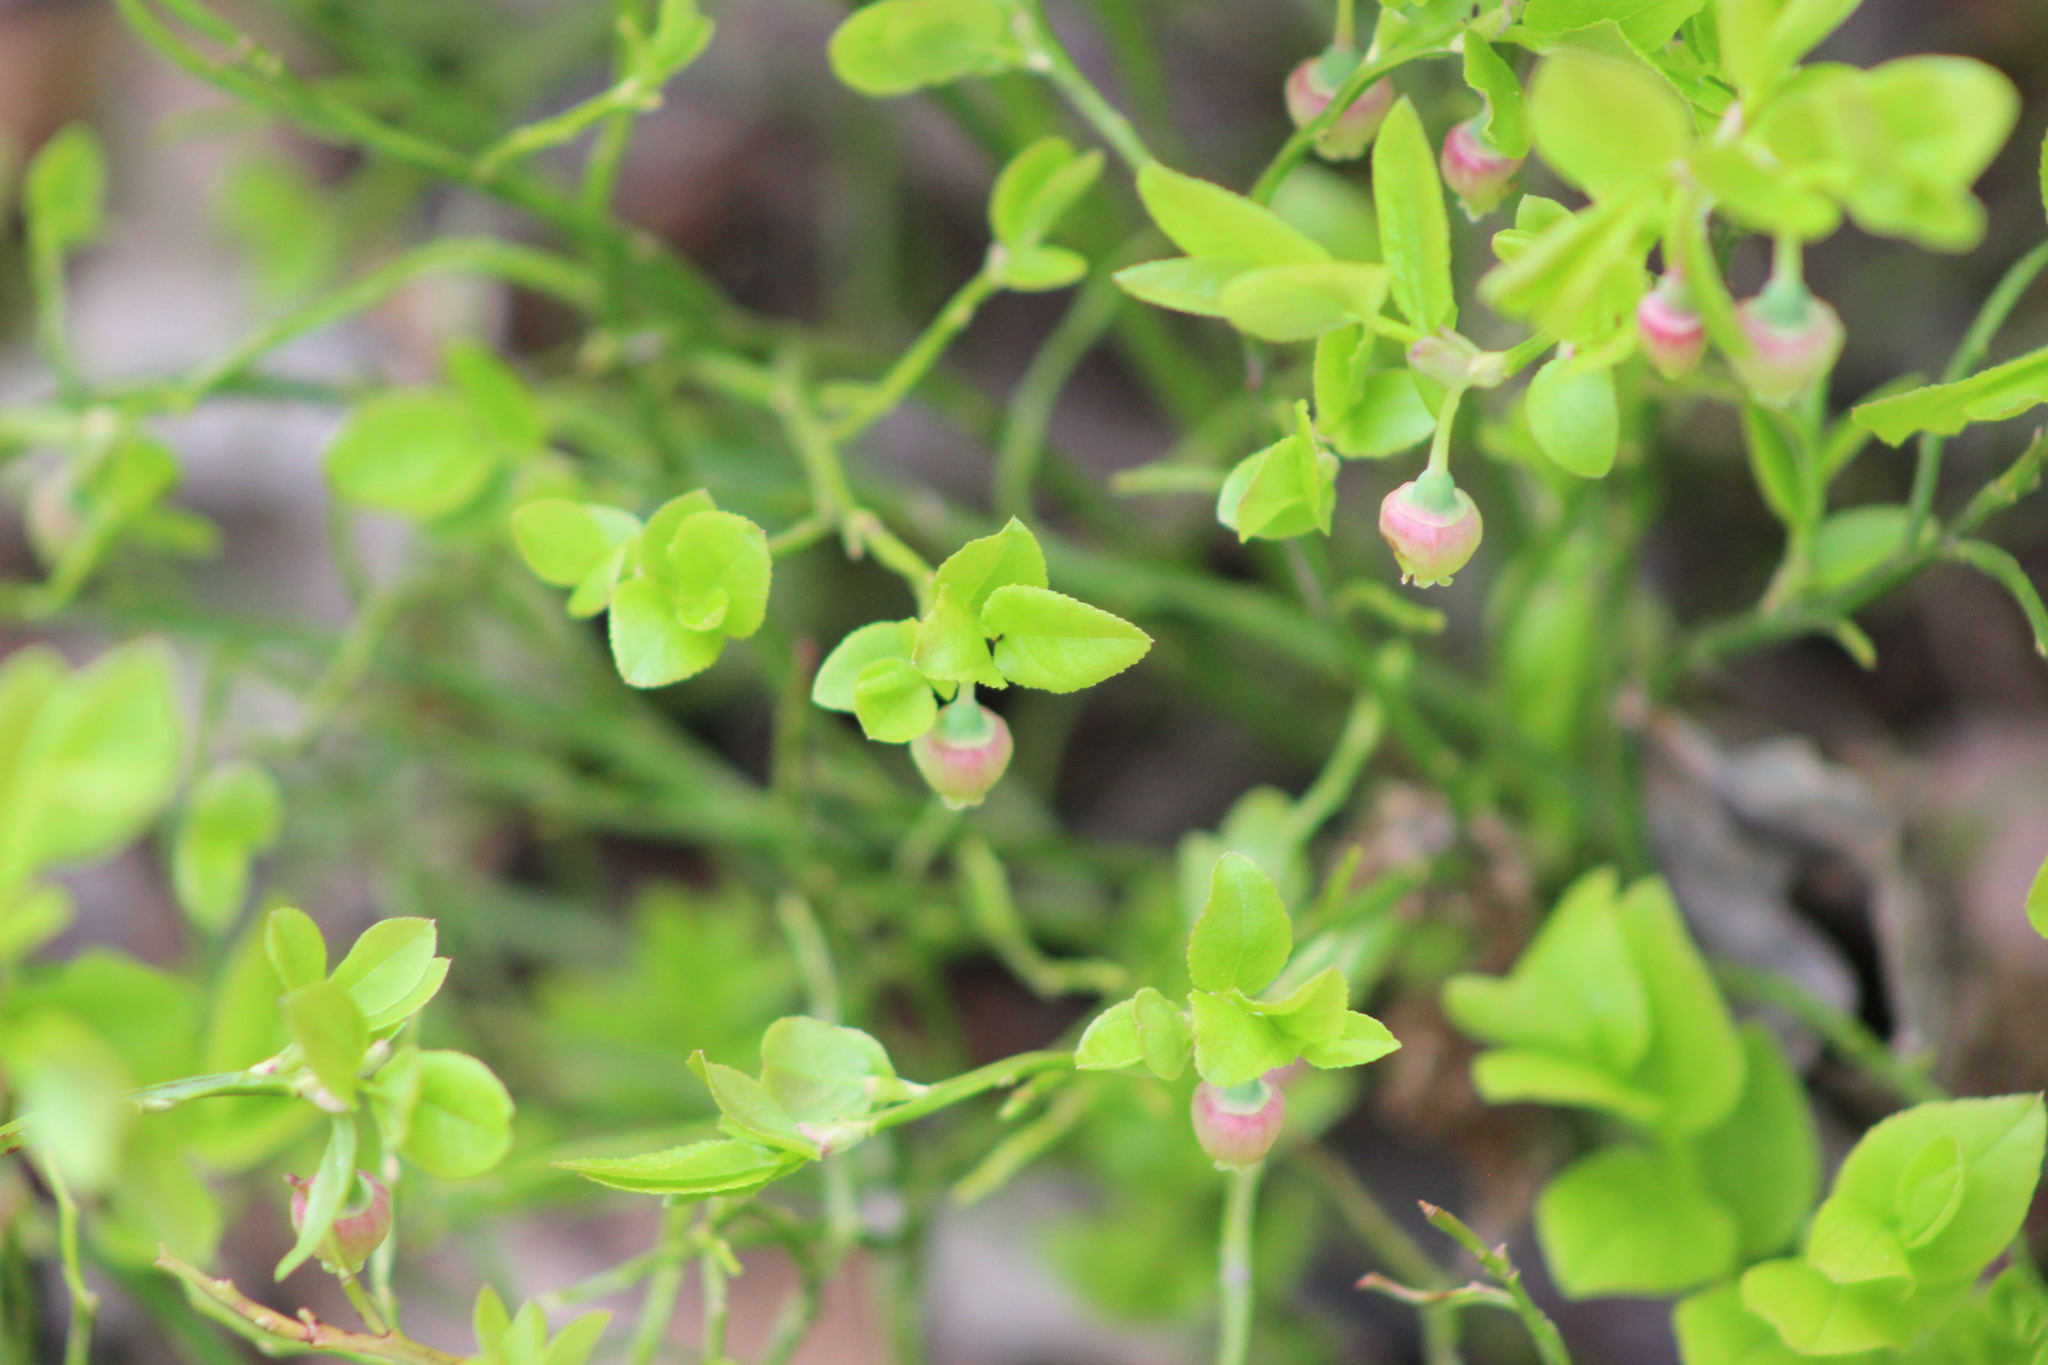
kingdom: Plantae
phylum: Tracheophyta
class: Magnoliopsida
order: Ericales
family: Ericaceae
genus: Vaccinium
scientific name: Vaccinium myrtillus
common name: Bilberry
